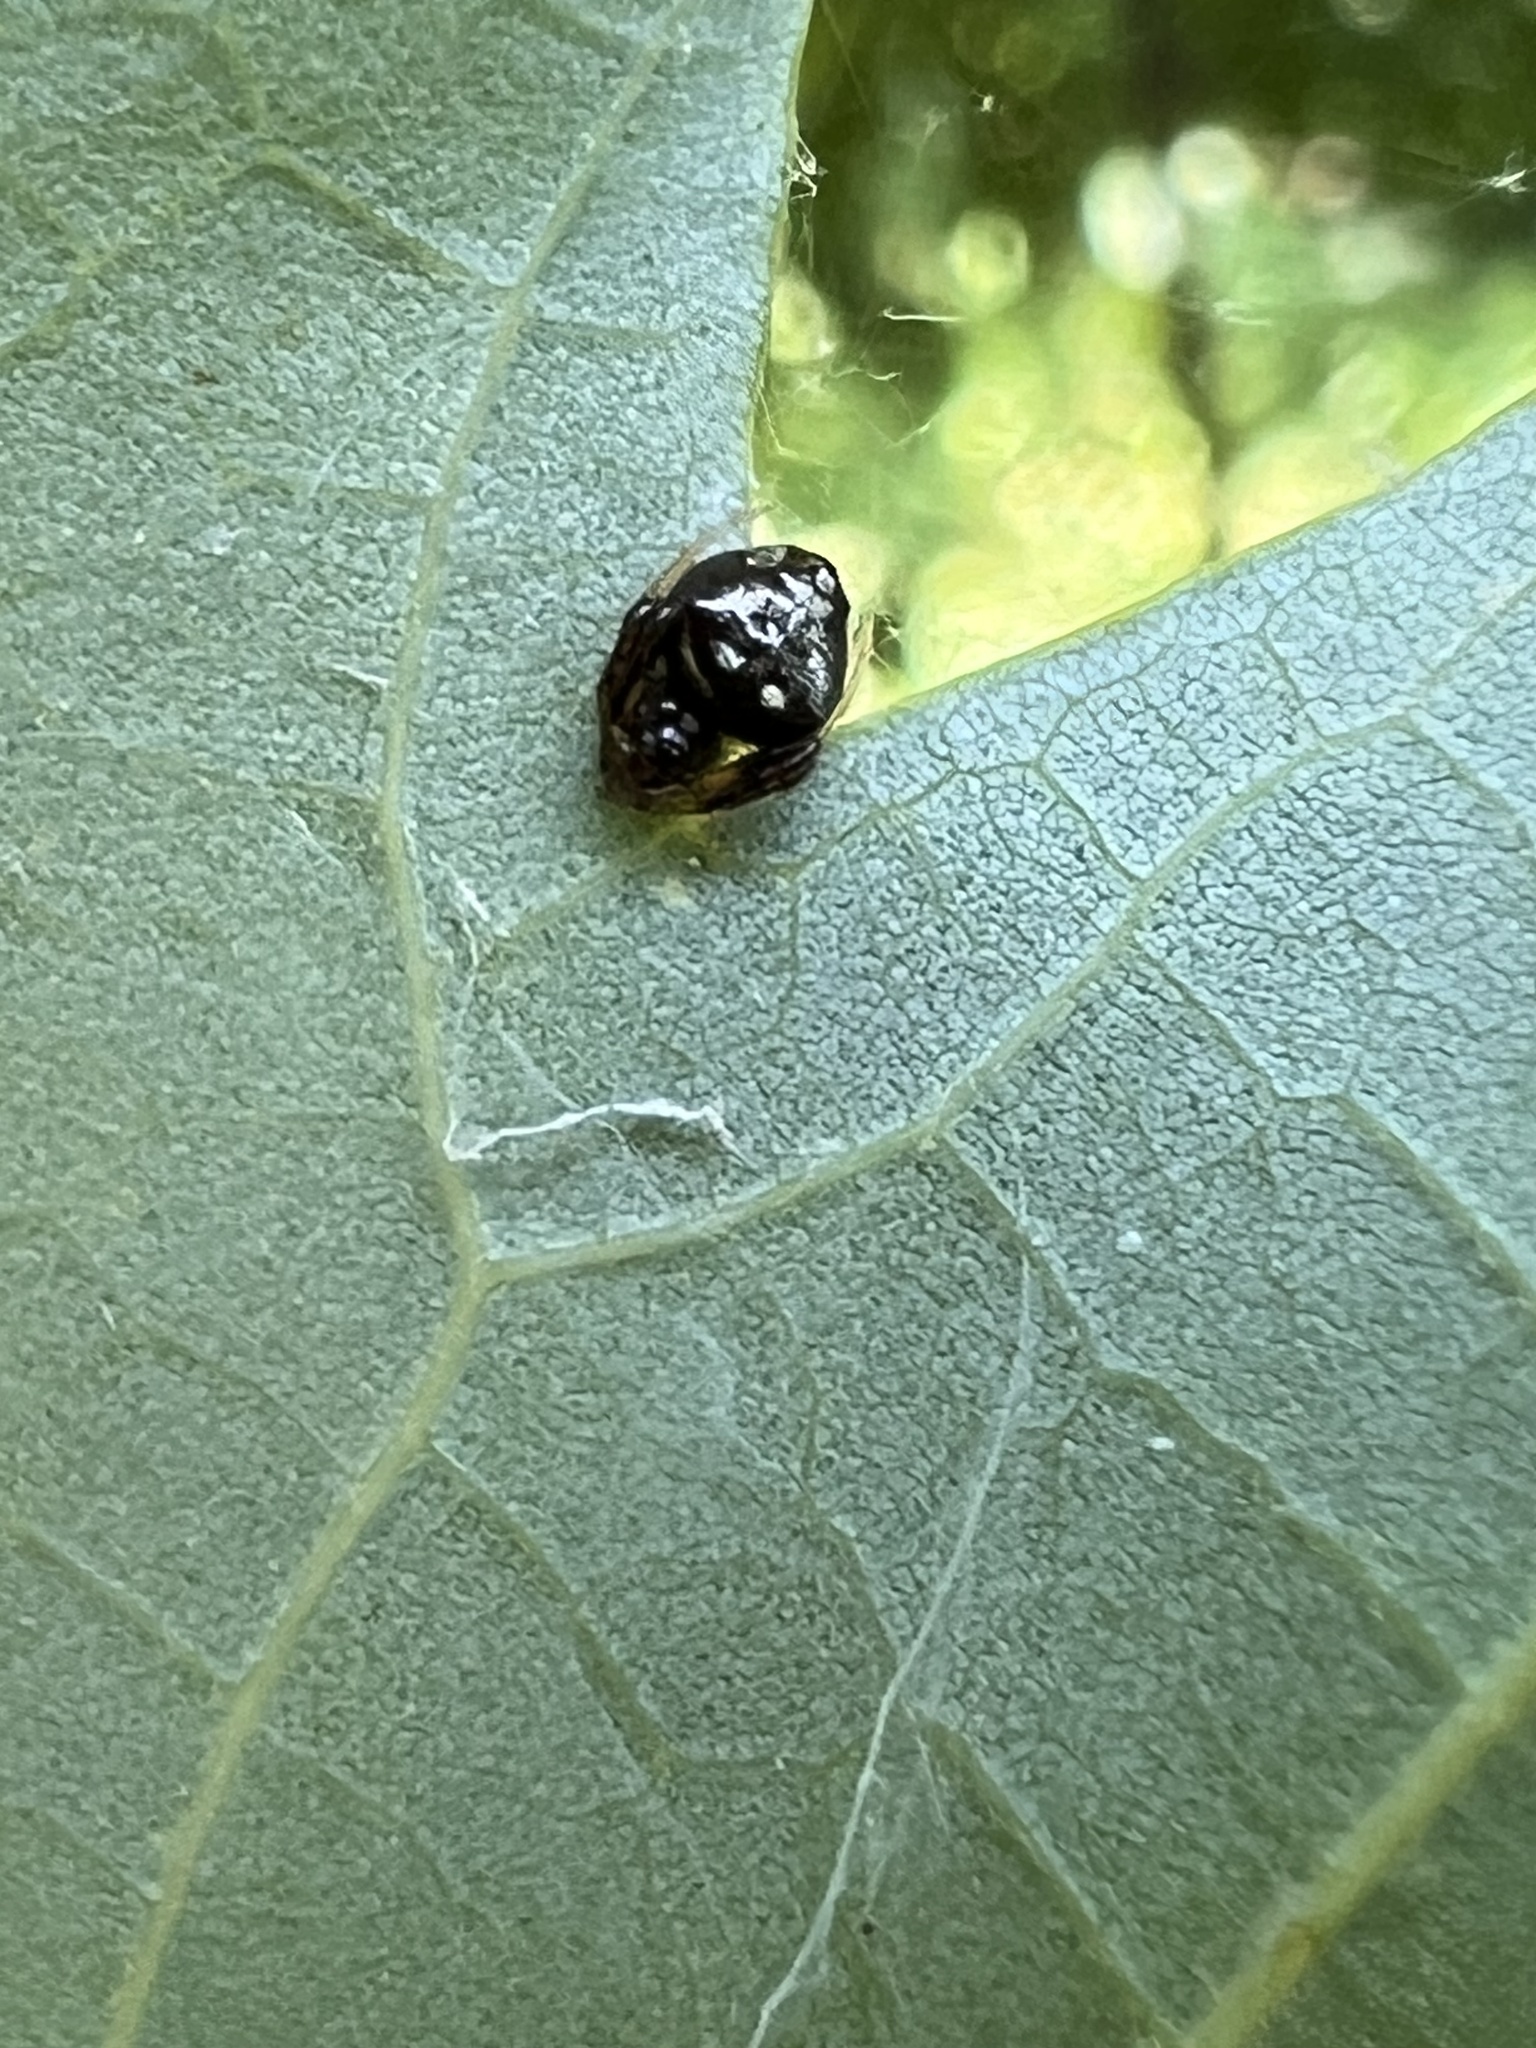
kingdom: Animalia
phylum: Arthropoda
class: Arachnida
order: Araneae
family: Araneidae
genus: Verrucosa
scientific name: Verrucosa arenata
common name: Orb weavers
